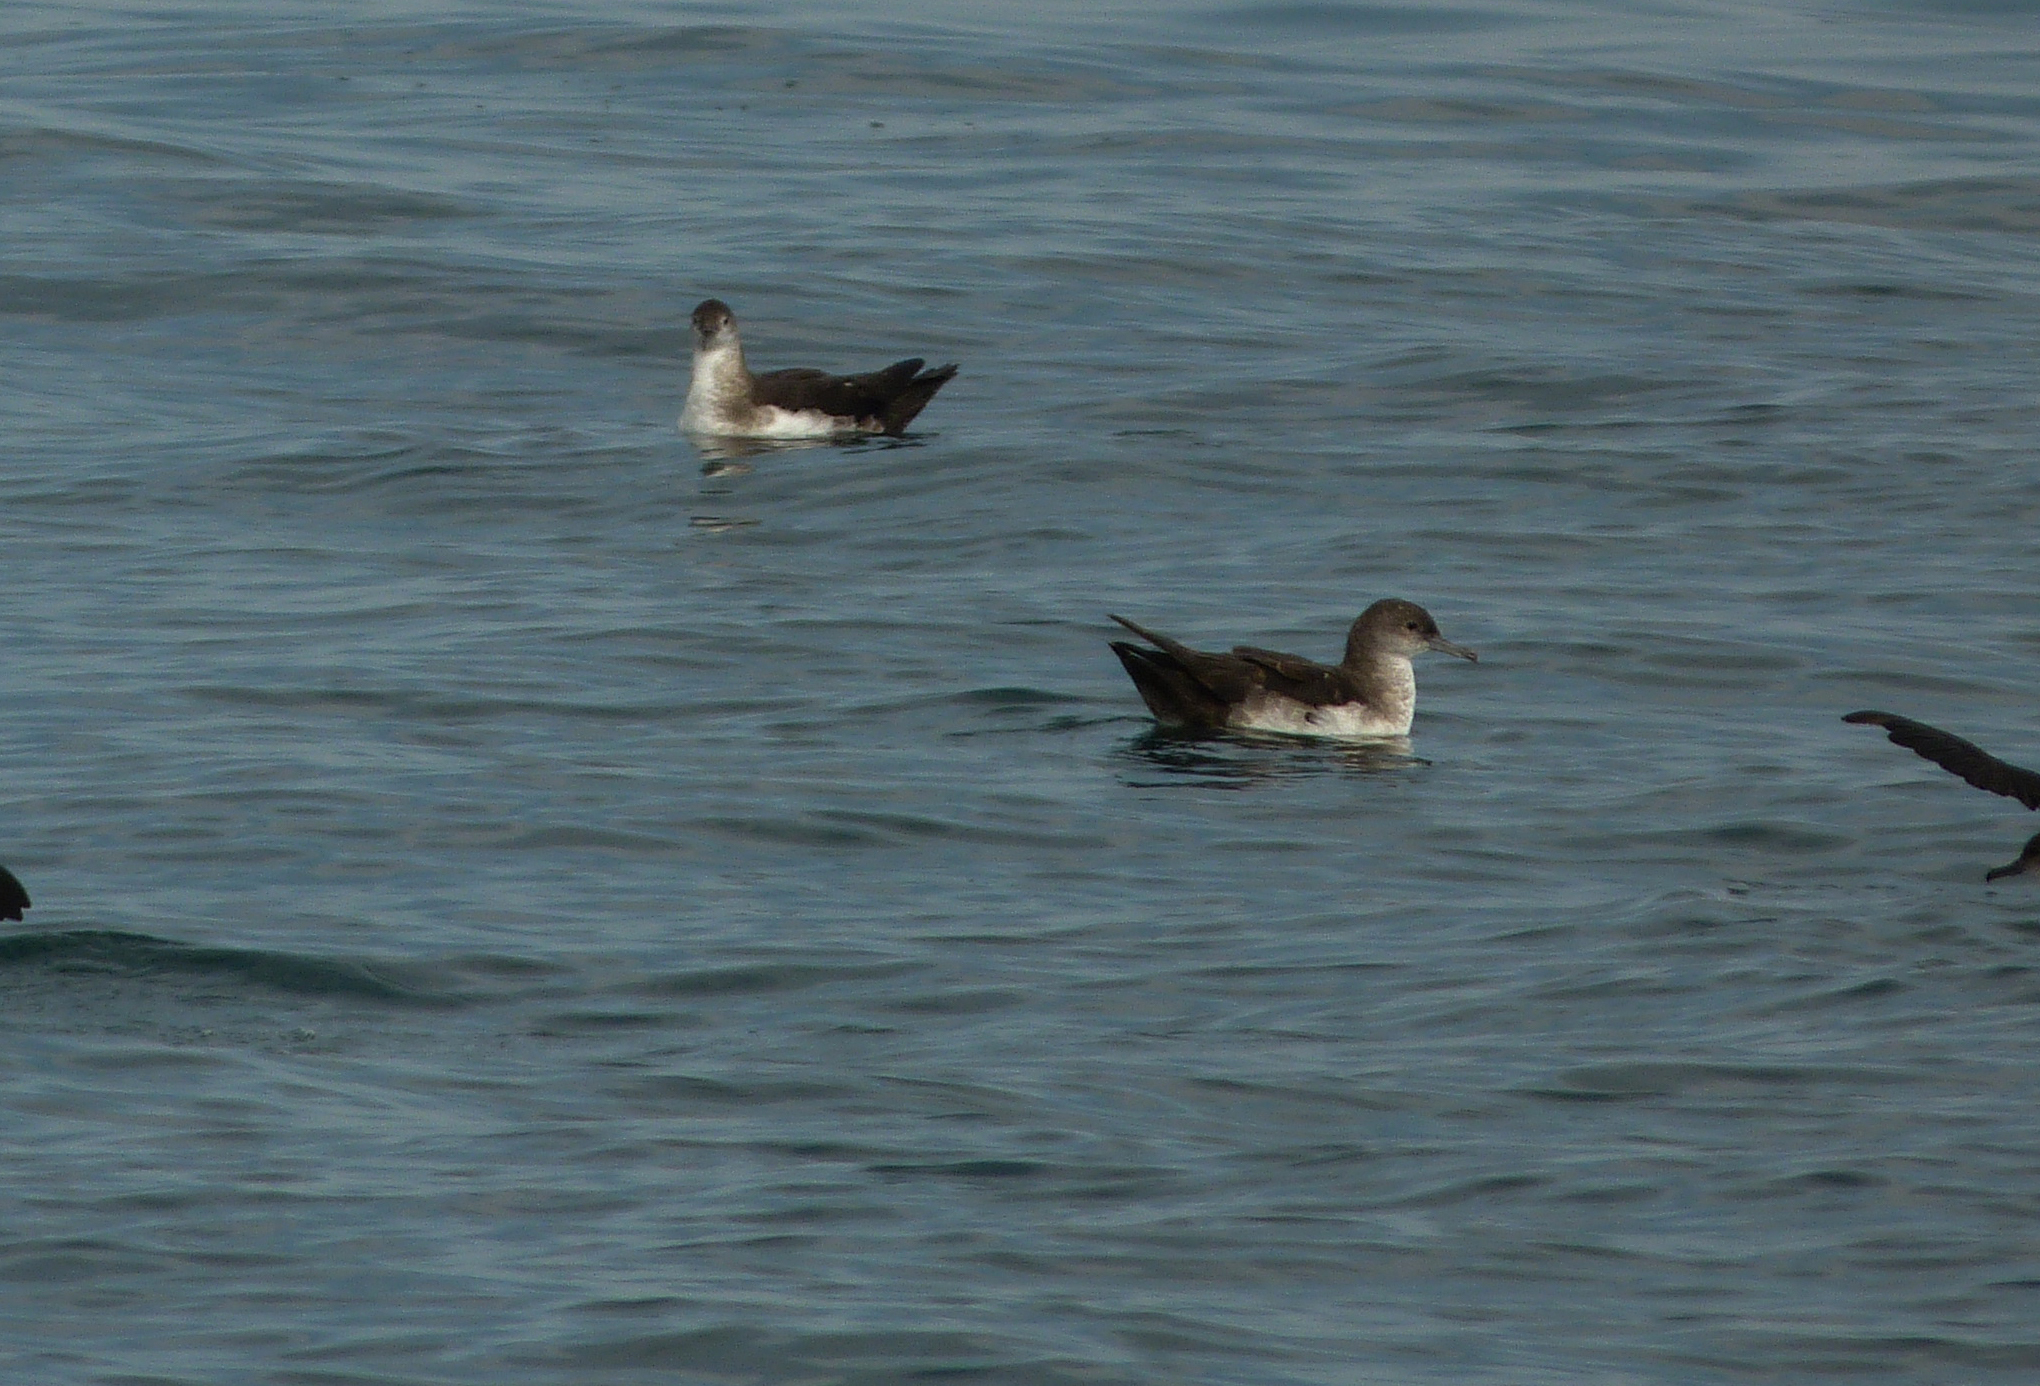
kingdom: Animalia
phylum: Chordata
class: Aves
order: Procellariiformes
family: Procellariidae
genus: Puffinus
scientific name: Puffinus opisthomelas
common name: Black-vented shearwater
